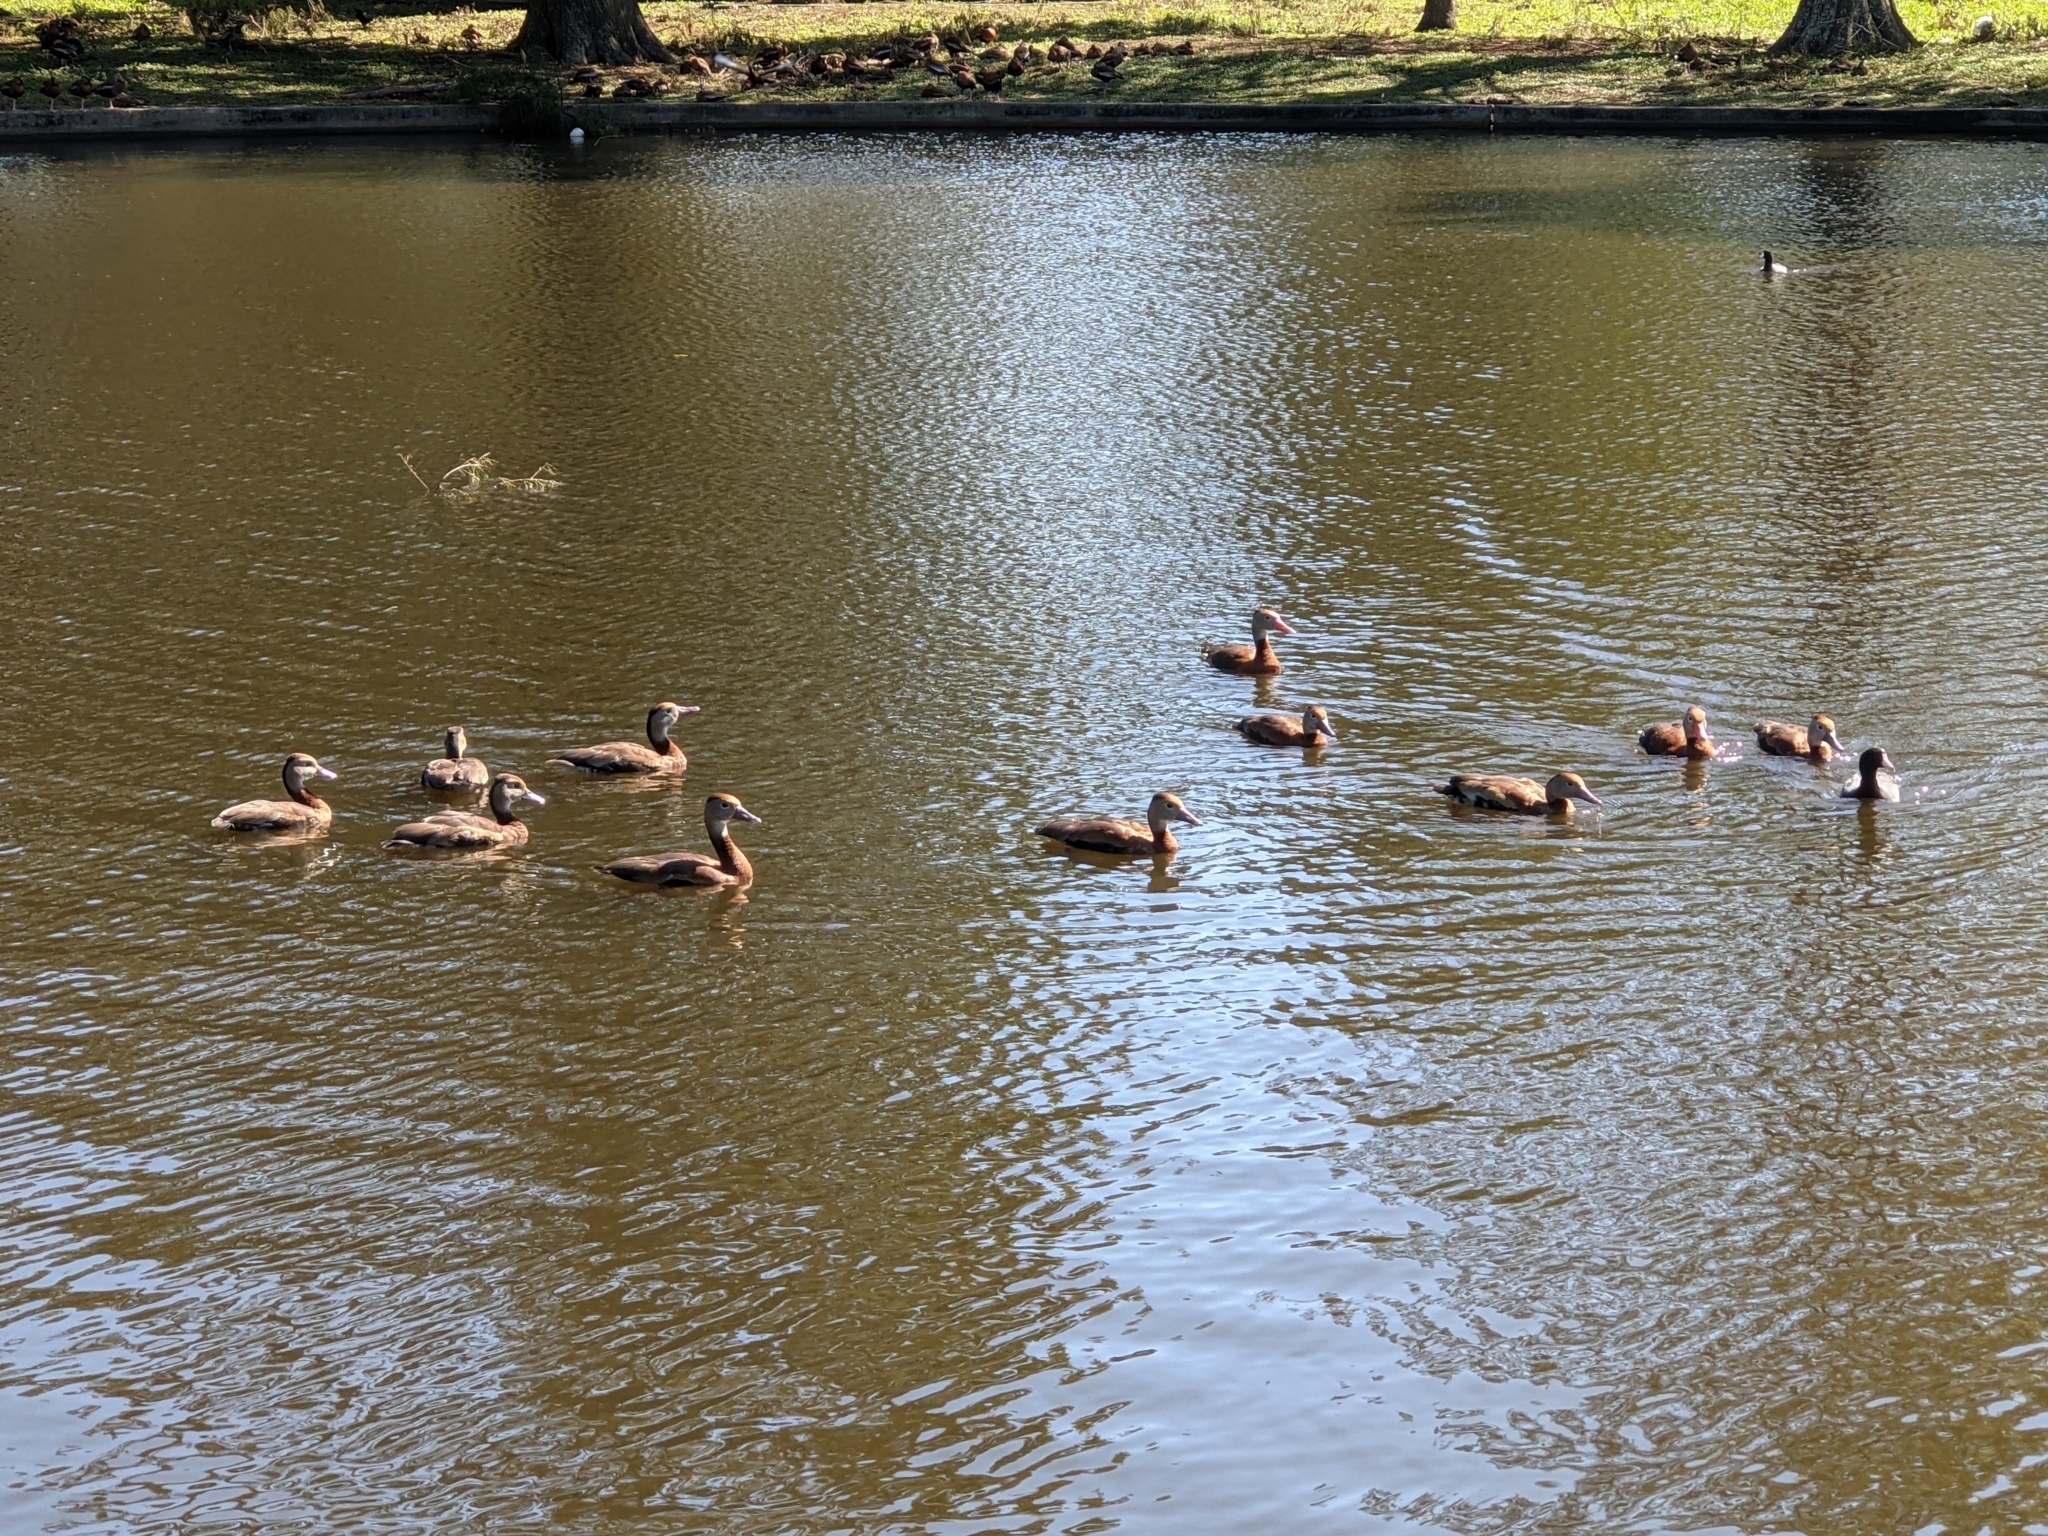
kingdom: Animalia
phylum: Chordata
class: Aves
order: Anseriformes
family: Anatidae
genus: Dendrocygna
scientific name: Dendrocygna autumnalis
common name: Black-bellied whistling duck
